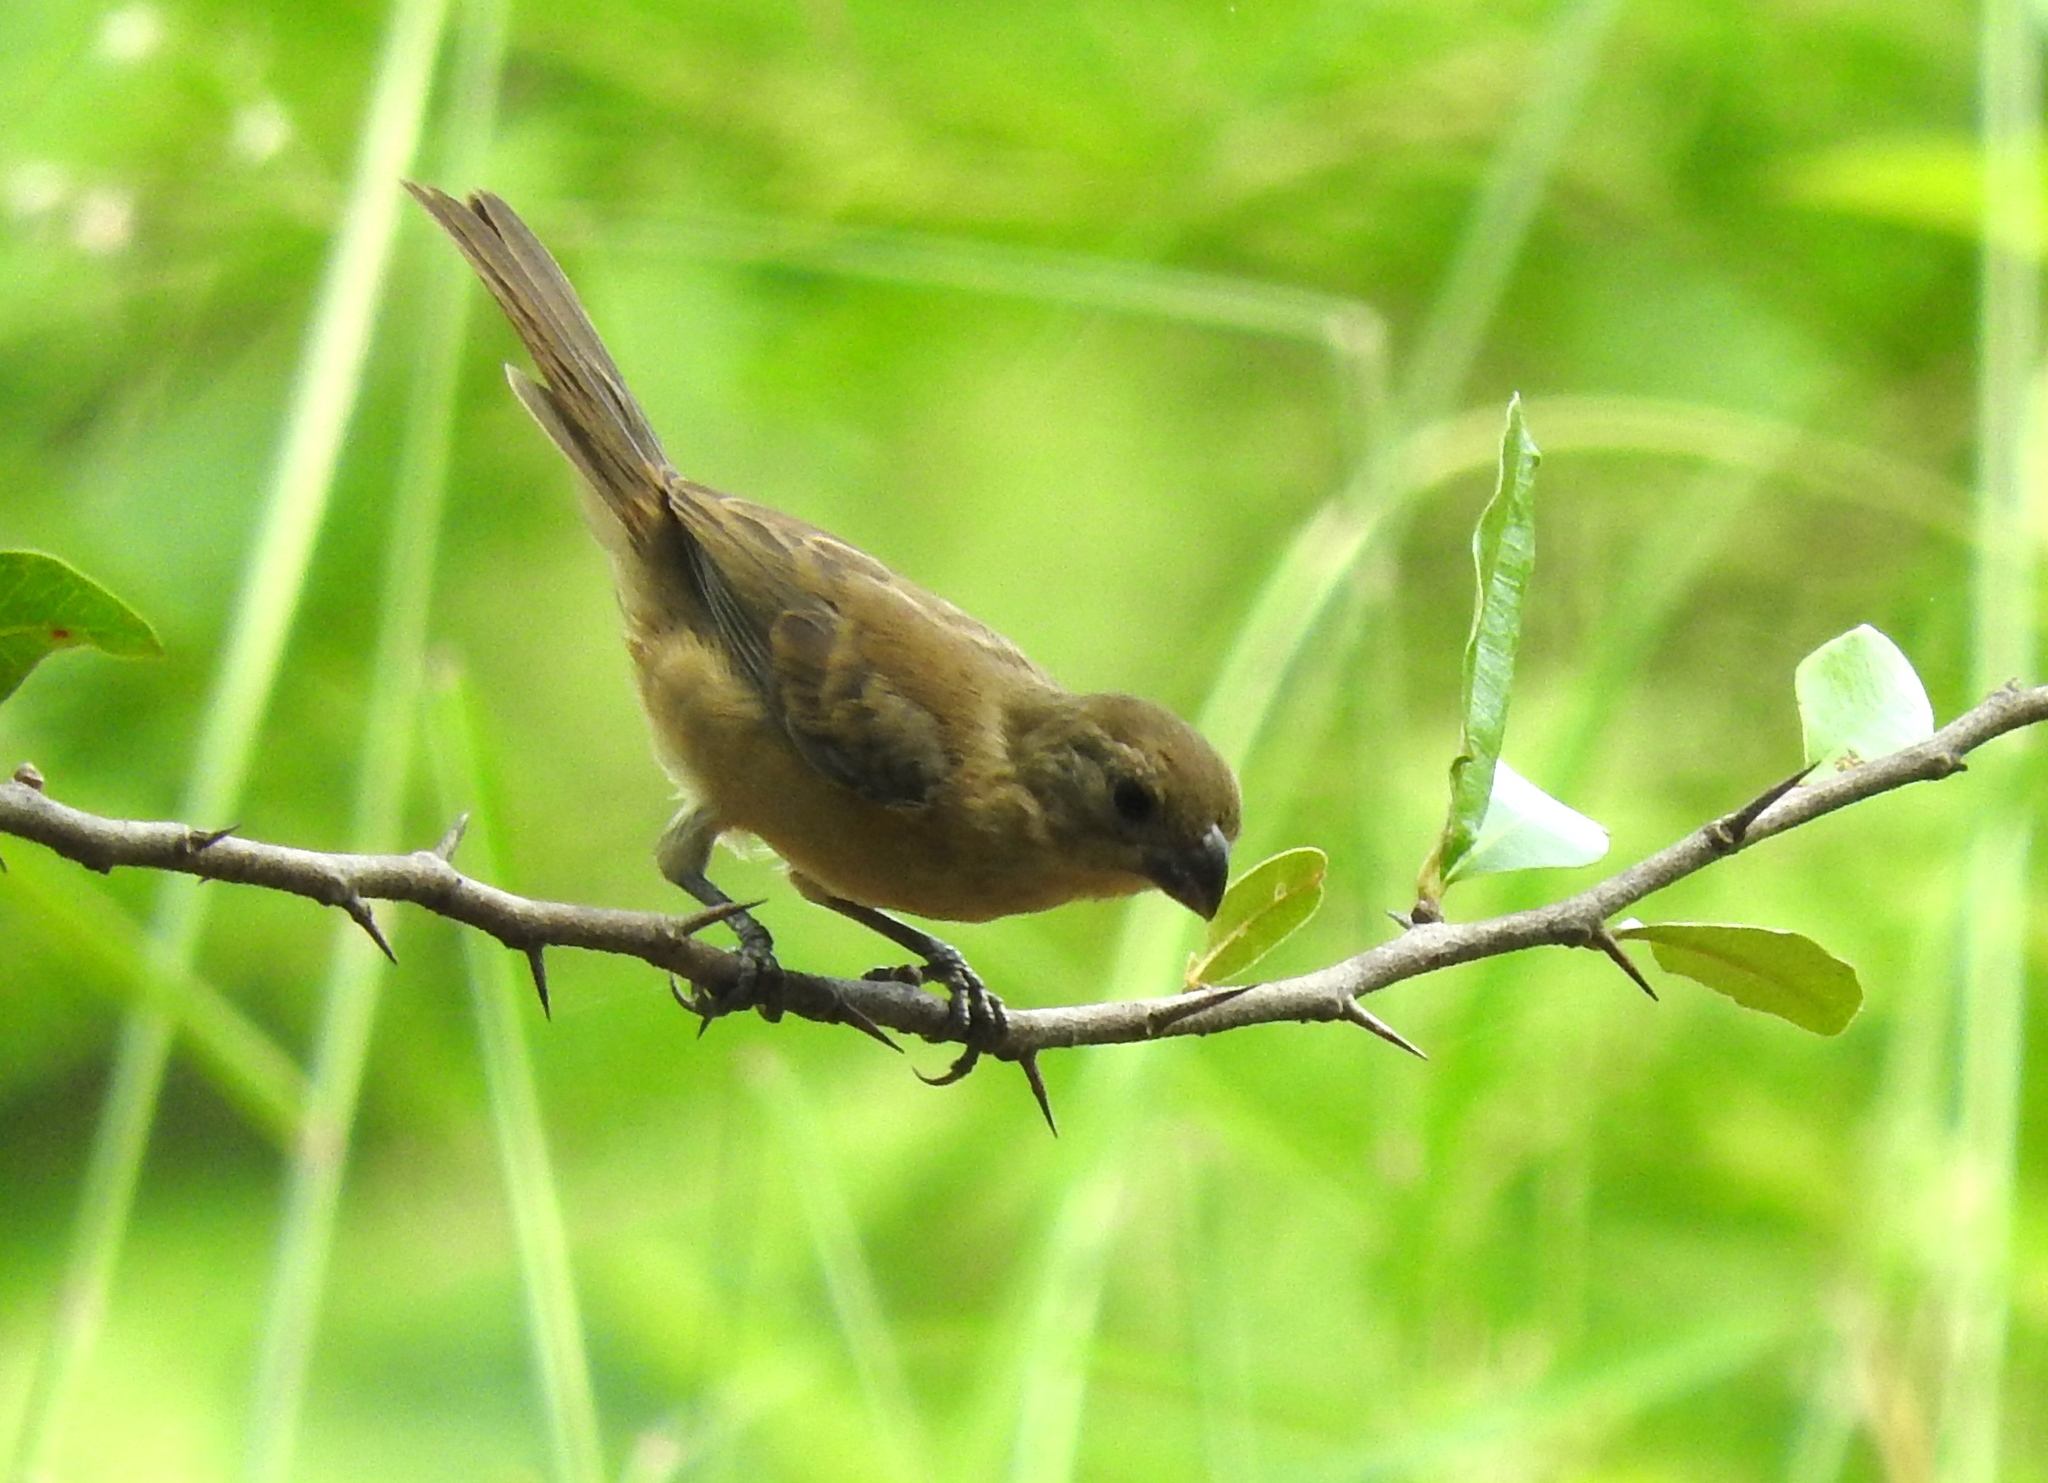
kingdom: Animalia
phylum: Chordata
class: Aves
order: Passeriformes
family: Thraupidae
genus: Sporophila
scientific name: Sporophila torqueola
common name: White-collared seedeater
